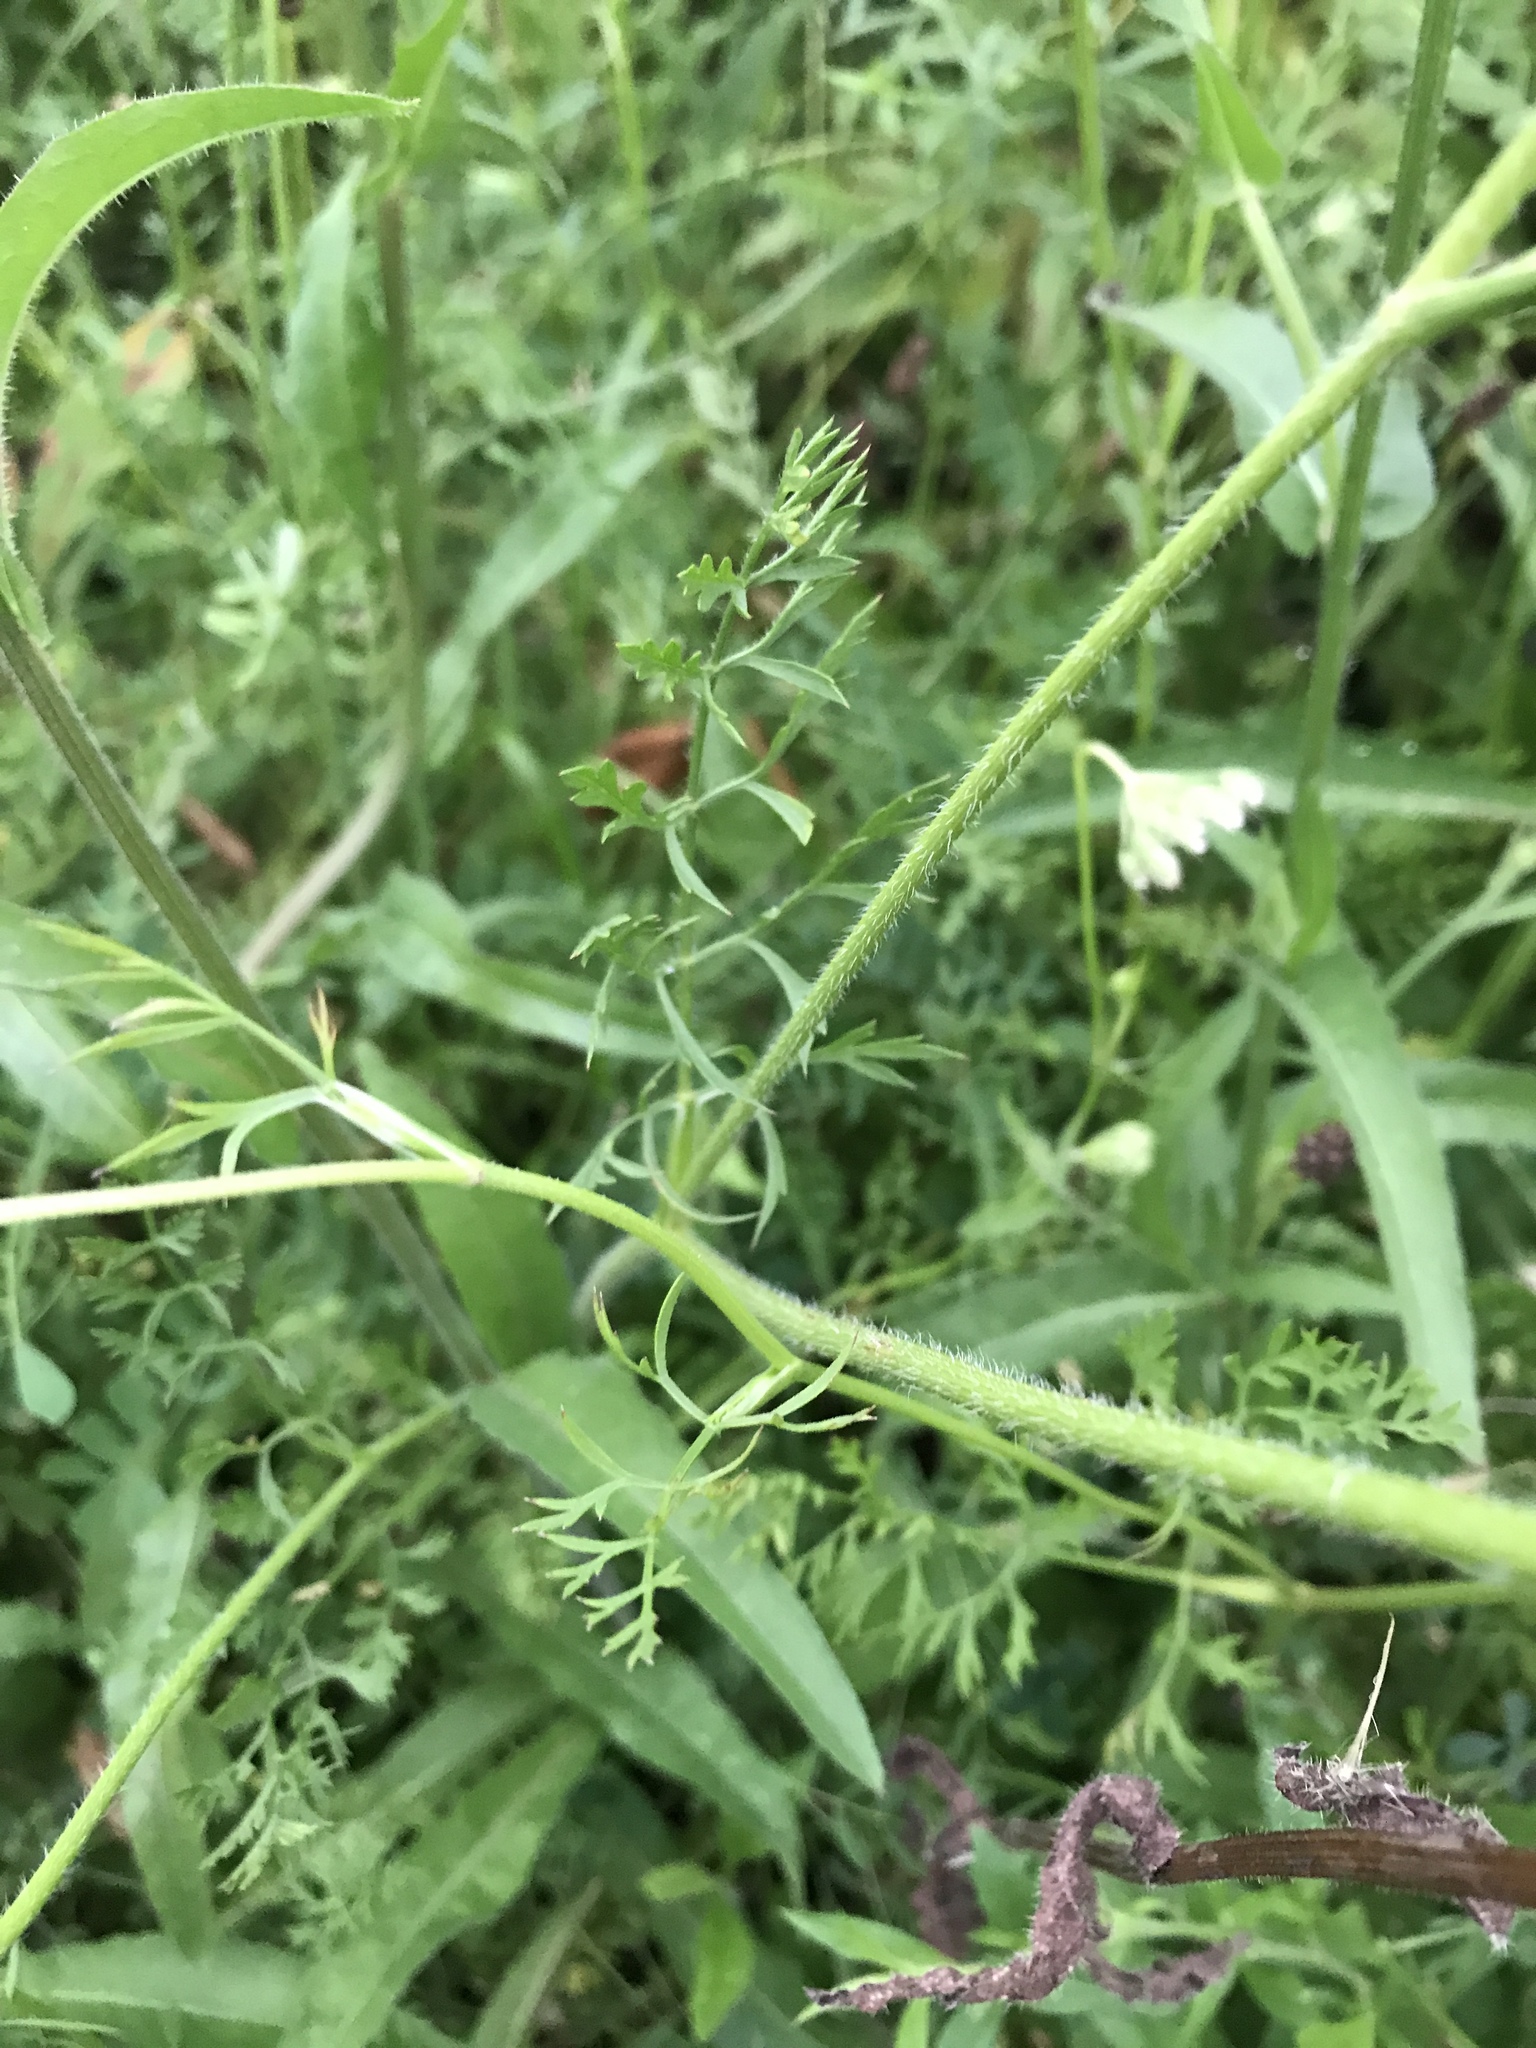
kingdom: Plantae
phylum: Tracheophyta
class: Magnoliopsida
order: Apiales
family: Apiaceae
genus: Daucus
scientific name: Daucus carota
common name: Wild carrot
